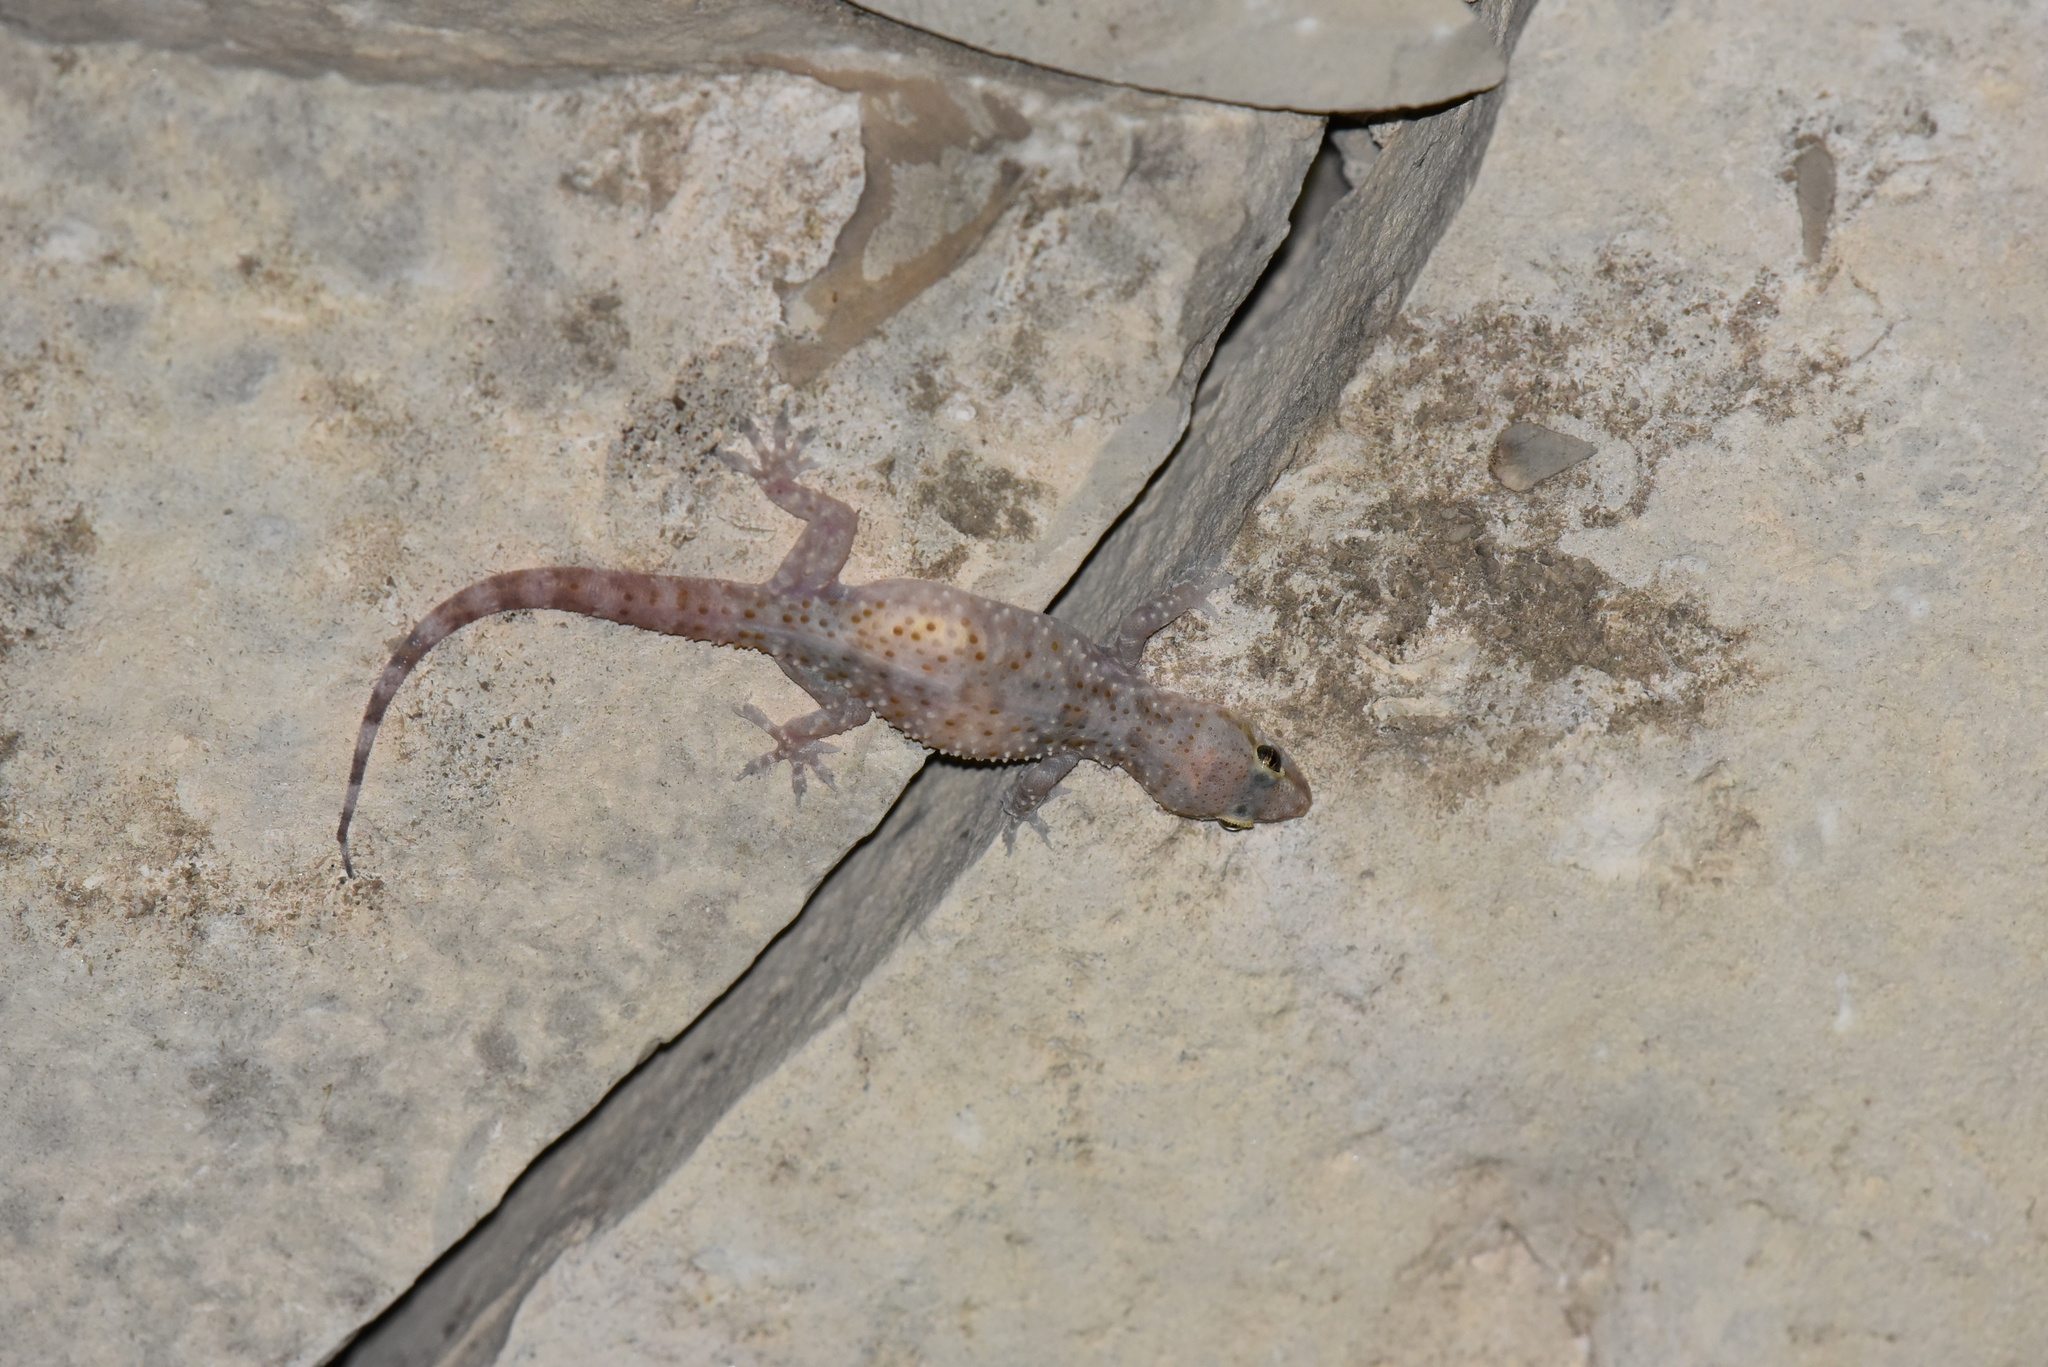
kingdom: Animalia
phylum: Chordata
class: Squamata
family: Gekkonidae
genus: Hemidactylus
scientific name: Hemidactylus turcicus
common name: Turkish gecko
